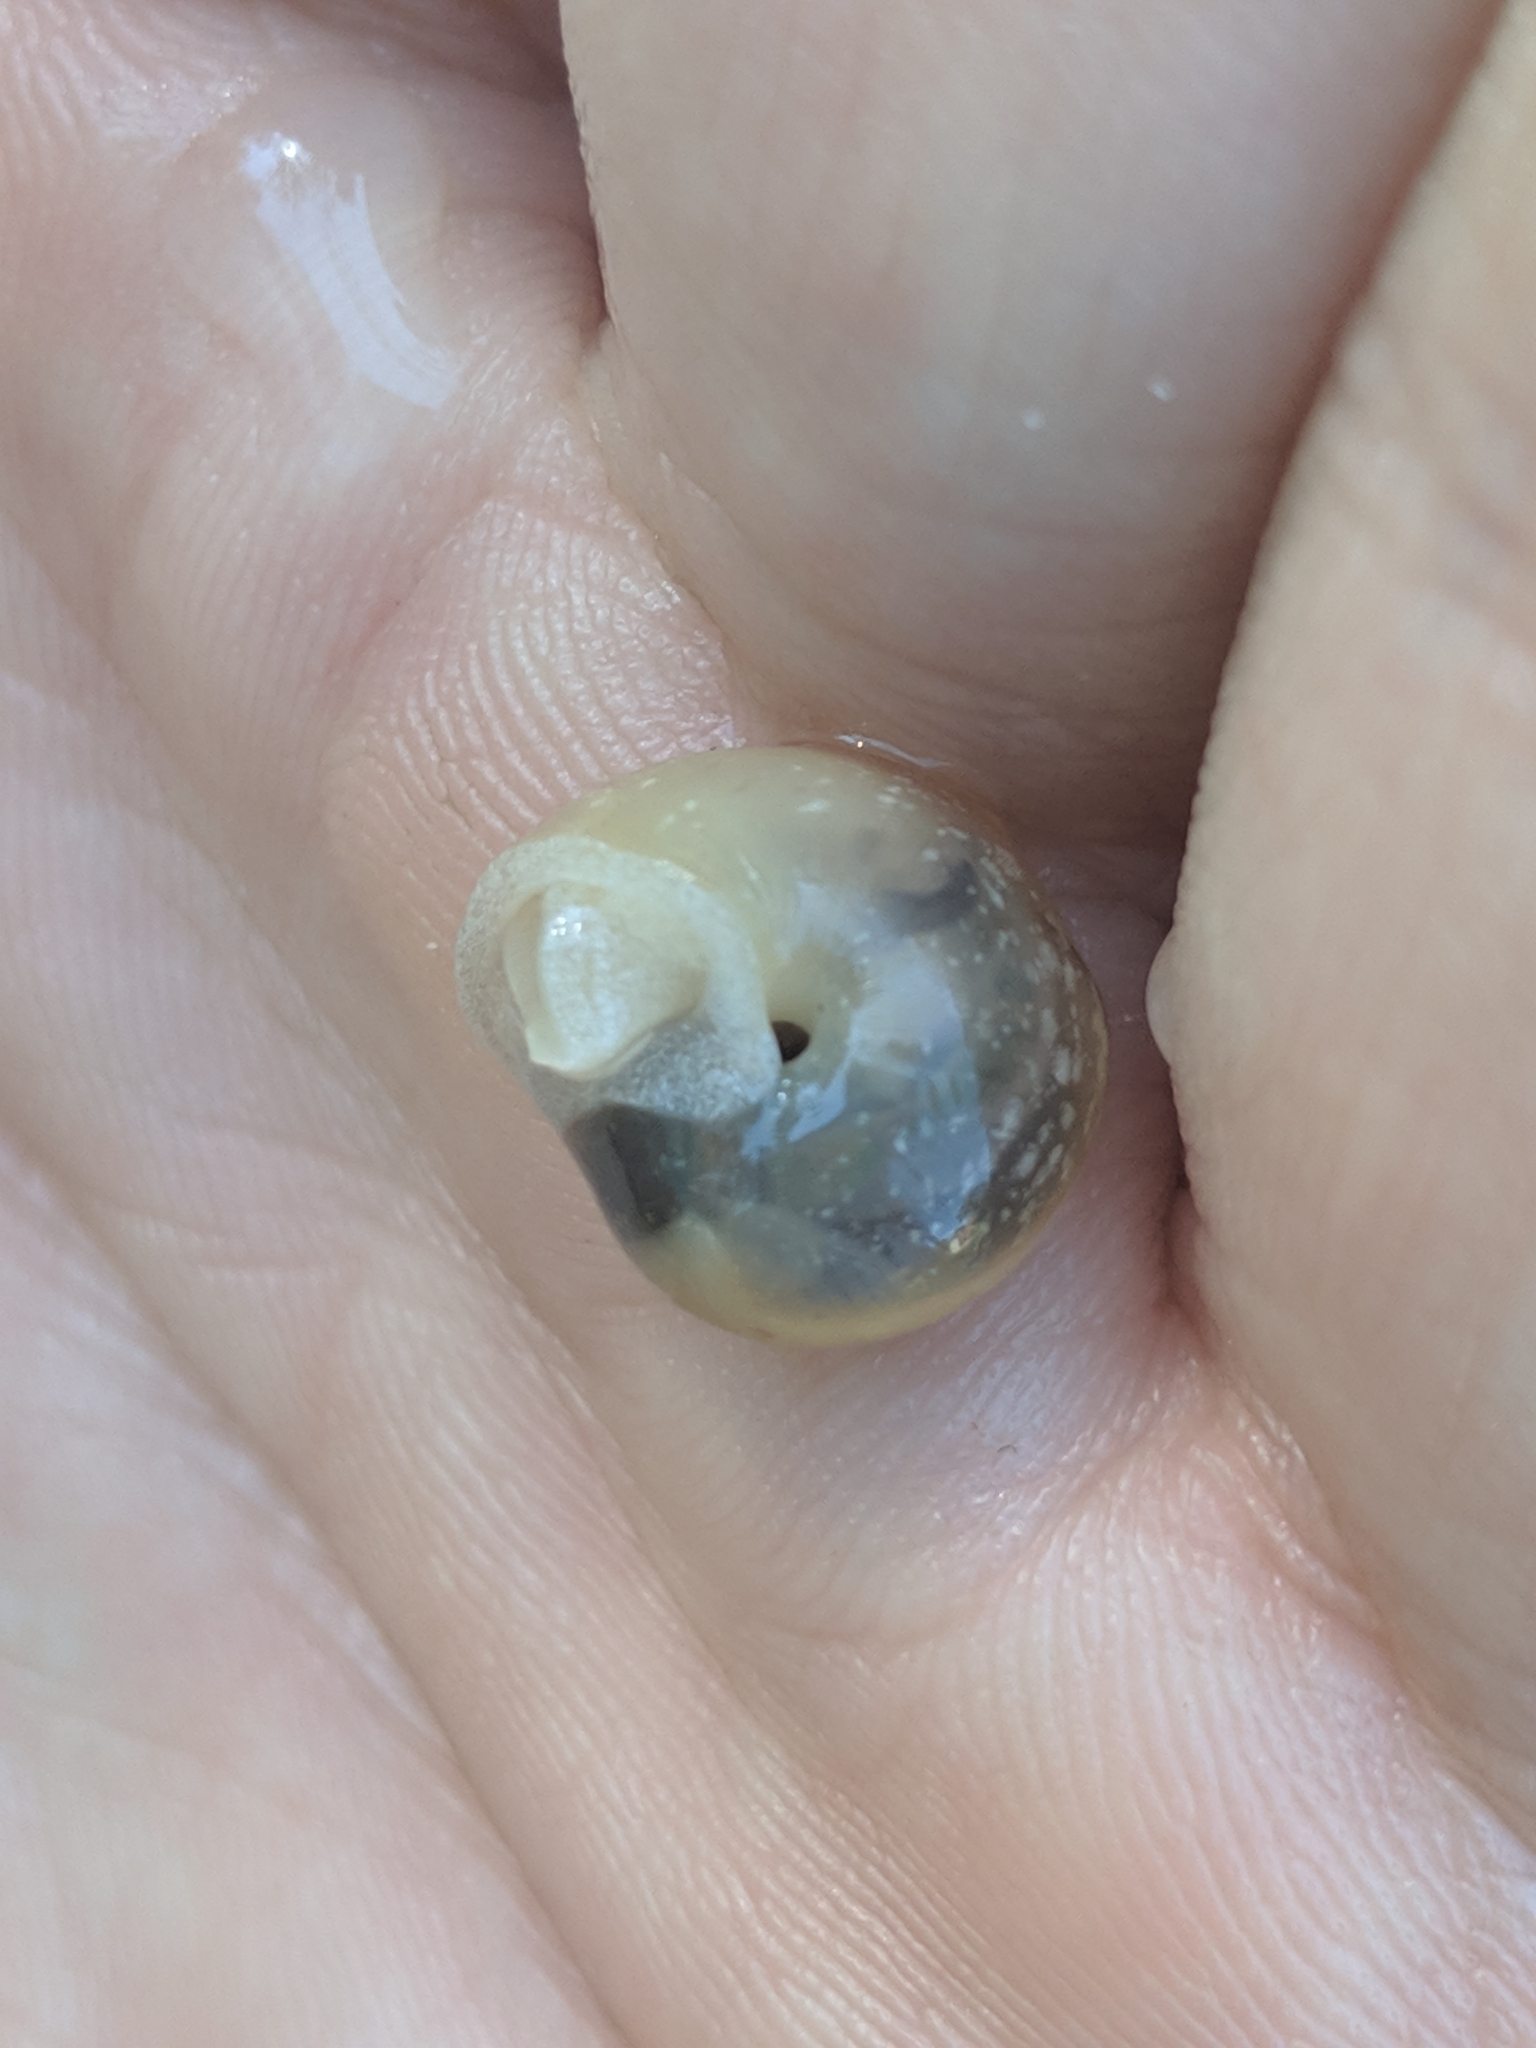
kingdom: Animalia
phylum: Mollusca
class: Gastropoda
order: Stylommatophora
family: Polygyridae
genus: Mesodon
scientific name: Mesodon thyroidus
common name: White-lip globe
